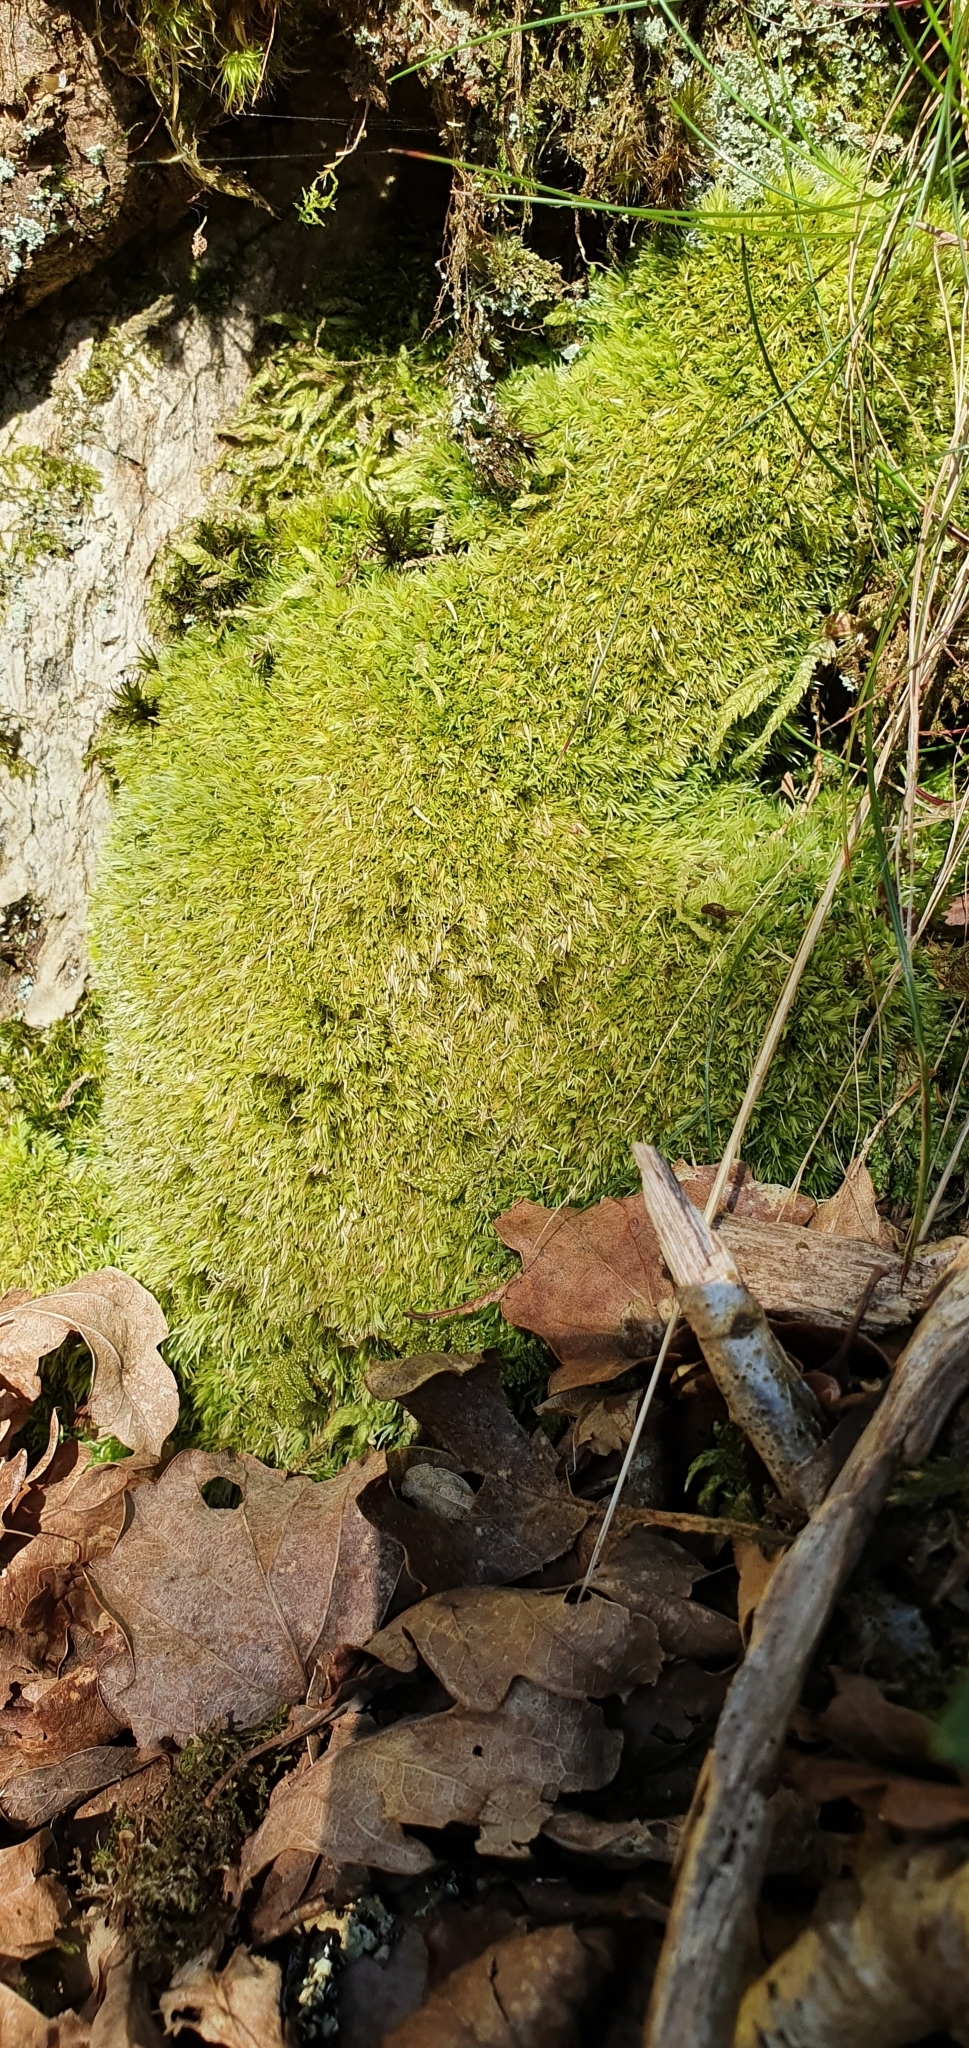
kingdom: Plantae
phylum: Bryophyta
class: Bryopsida
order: Dicranales
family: Leucobryaceae
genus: Leucobryum
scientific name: Leucobryum glaucum
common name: Large white-moss
